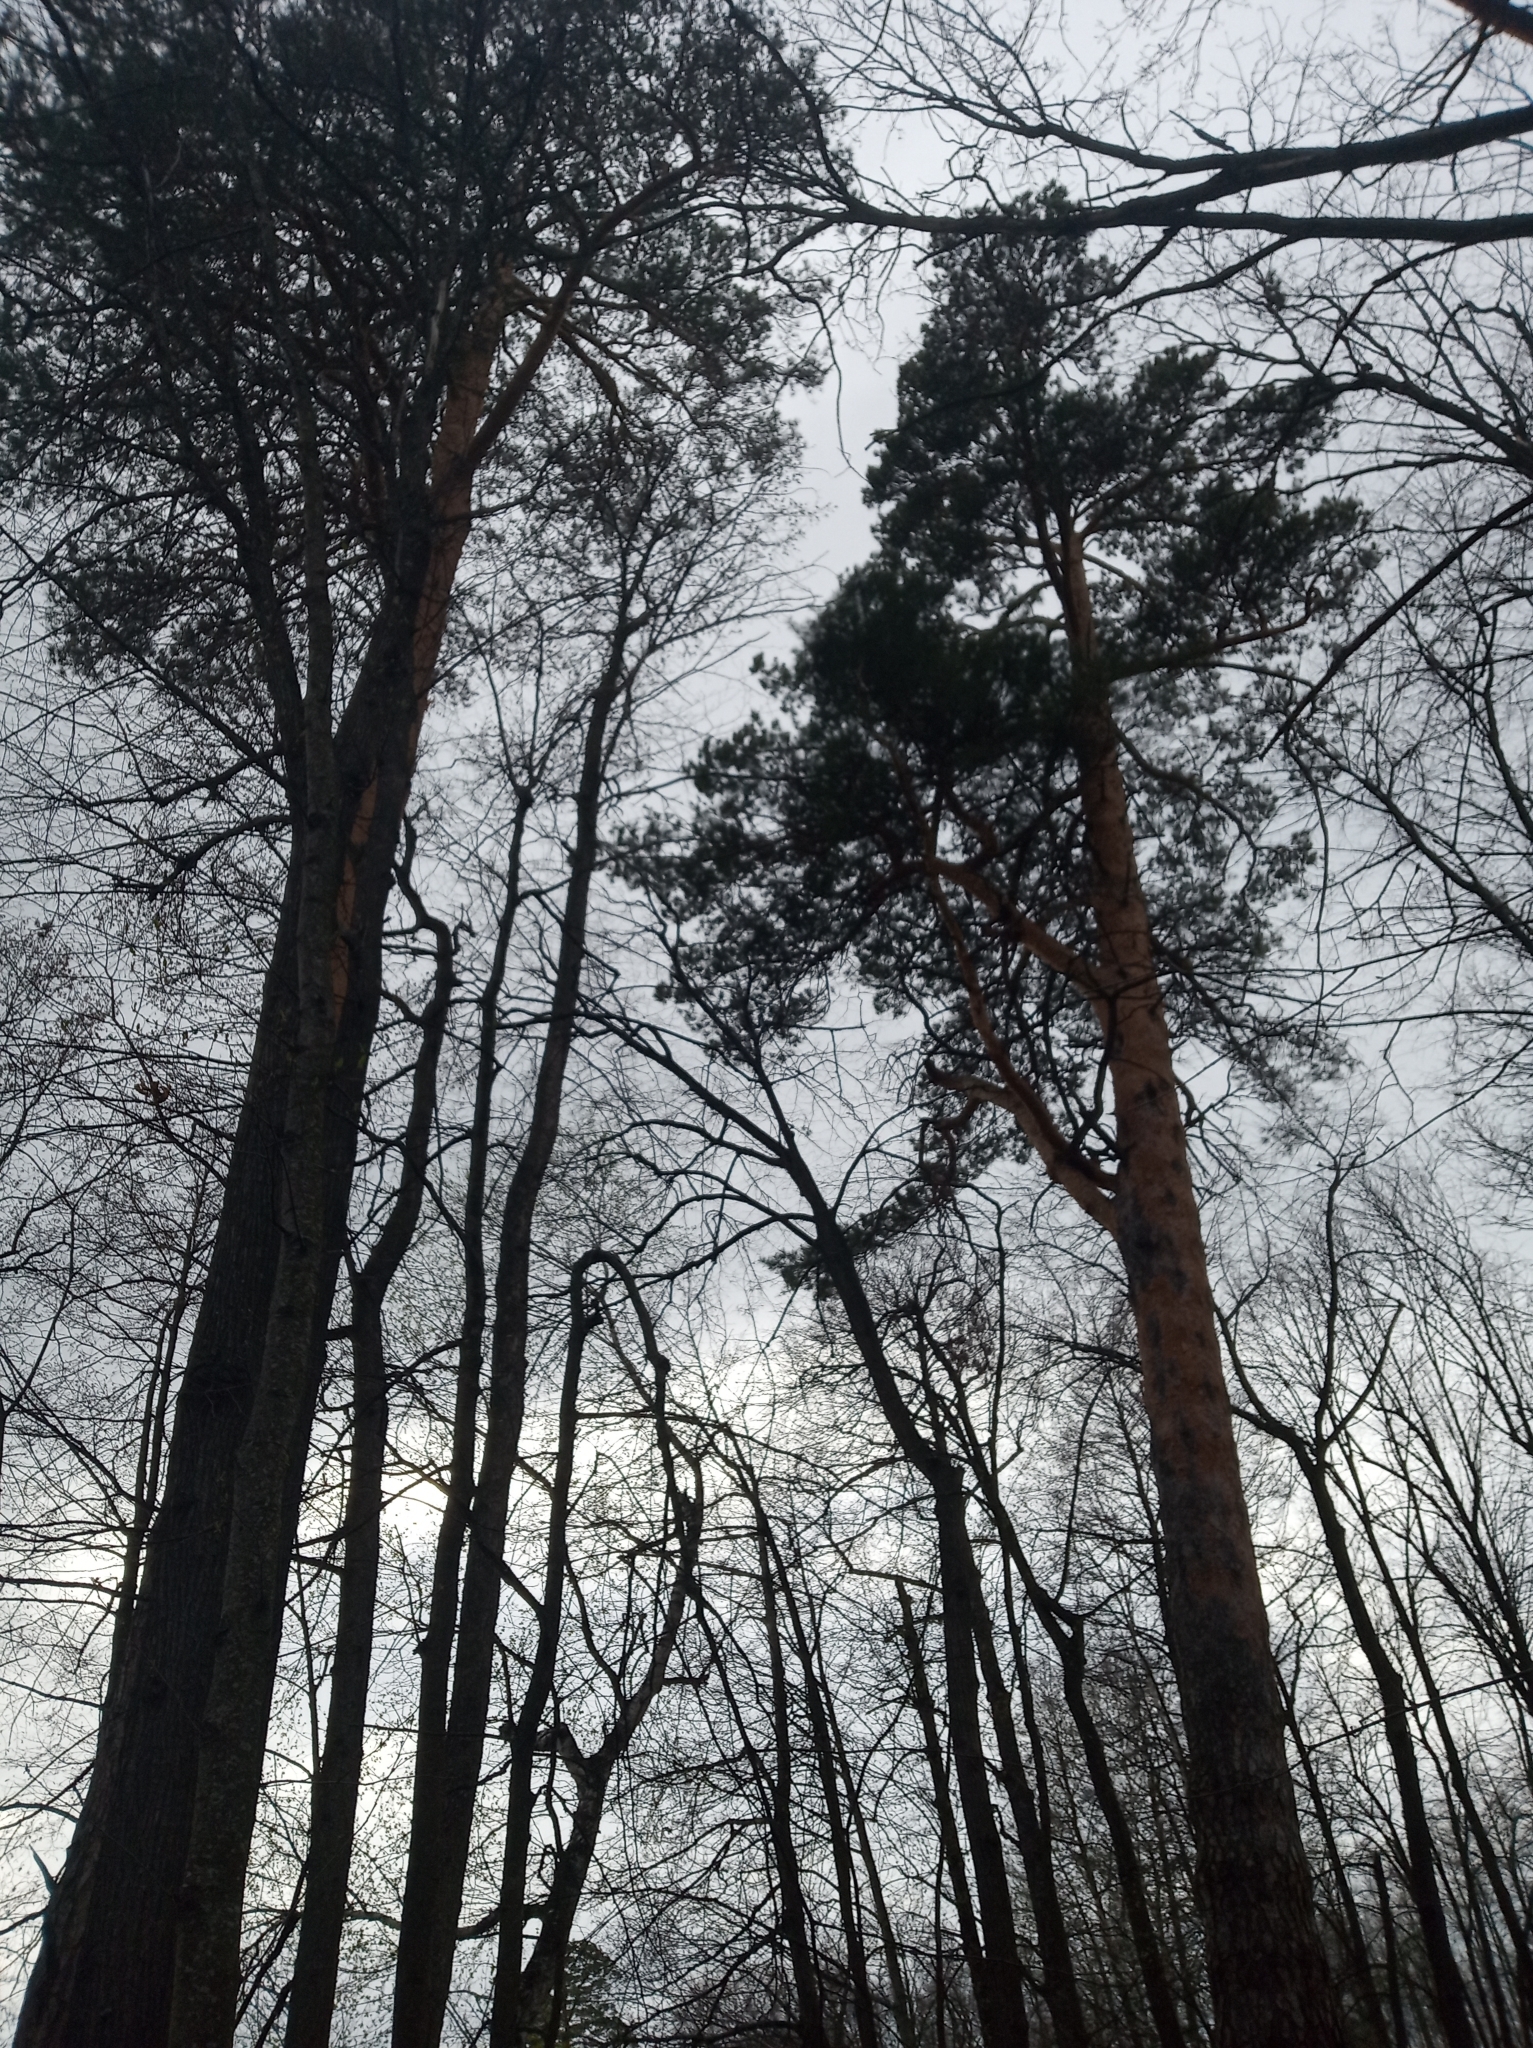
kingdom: Plantae
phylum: Tracheophyta
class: Pinopsida
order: Pinales
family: Pinaceae
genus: Pinus
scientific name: Pinus sylvestris
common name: Scots pine
